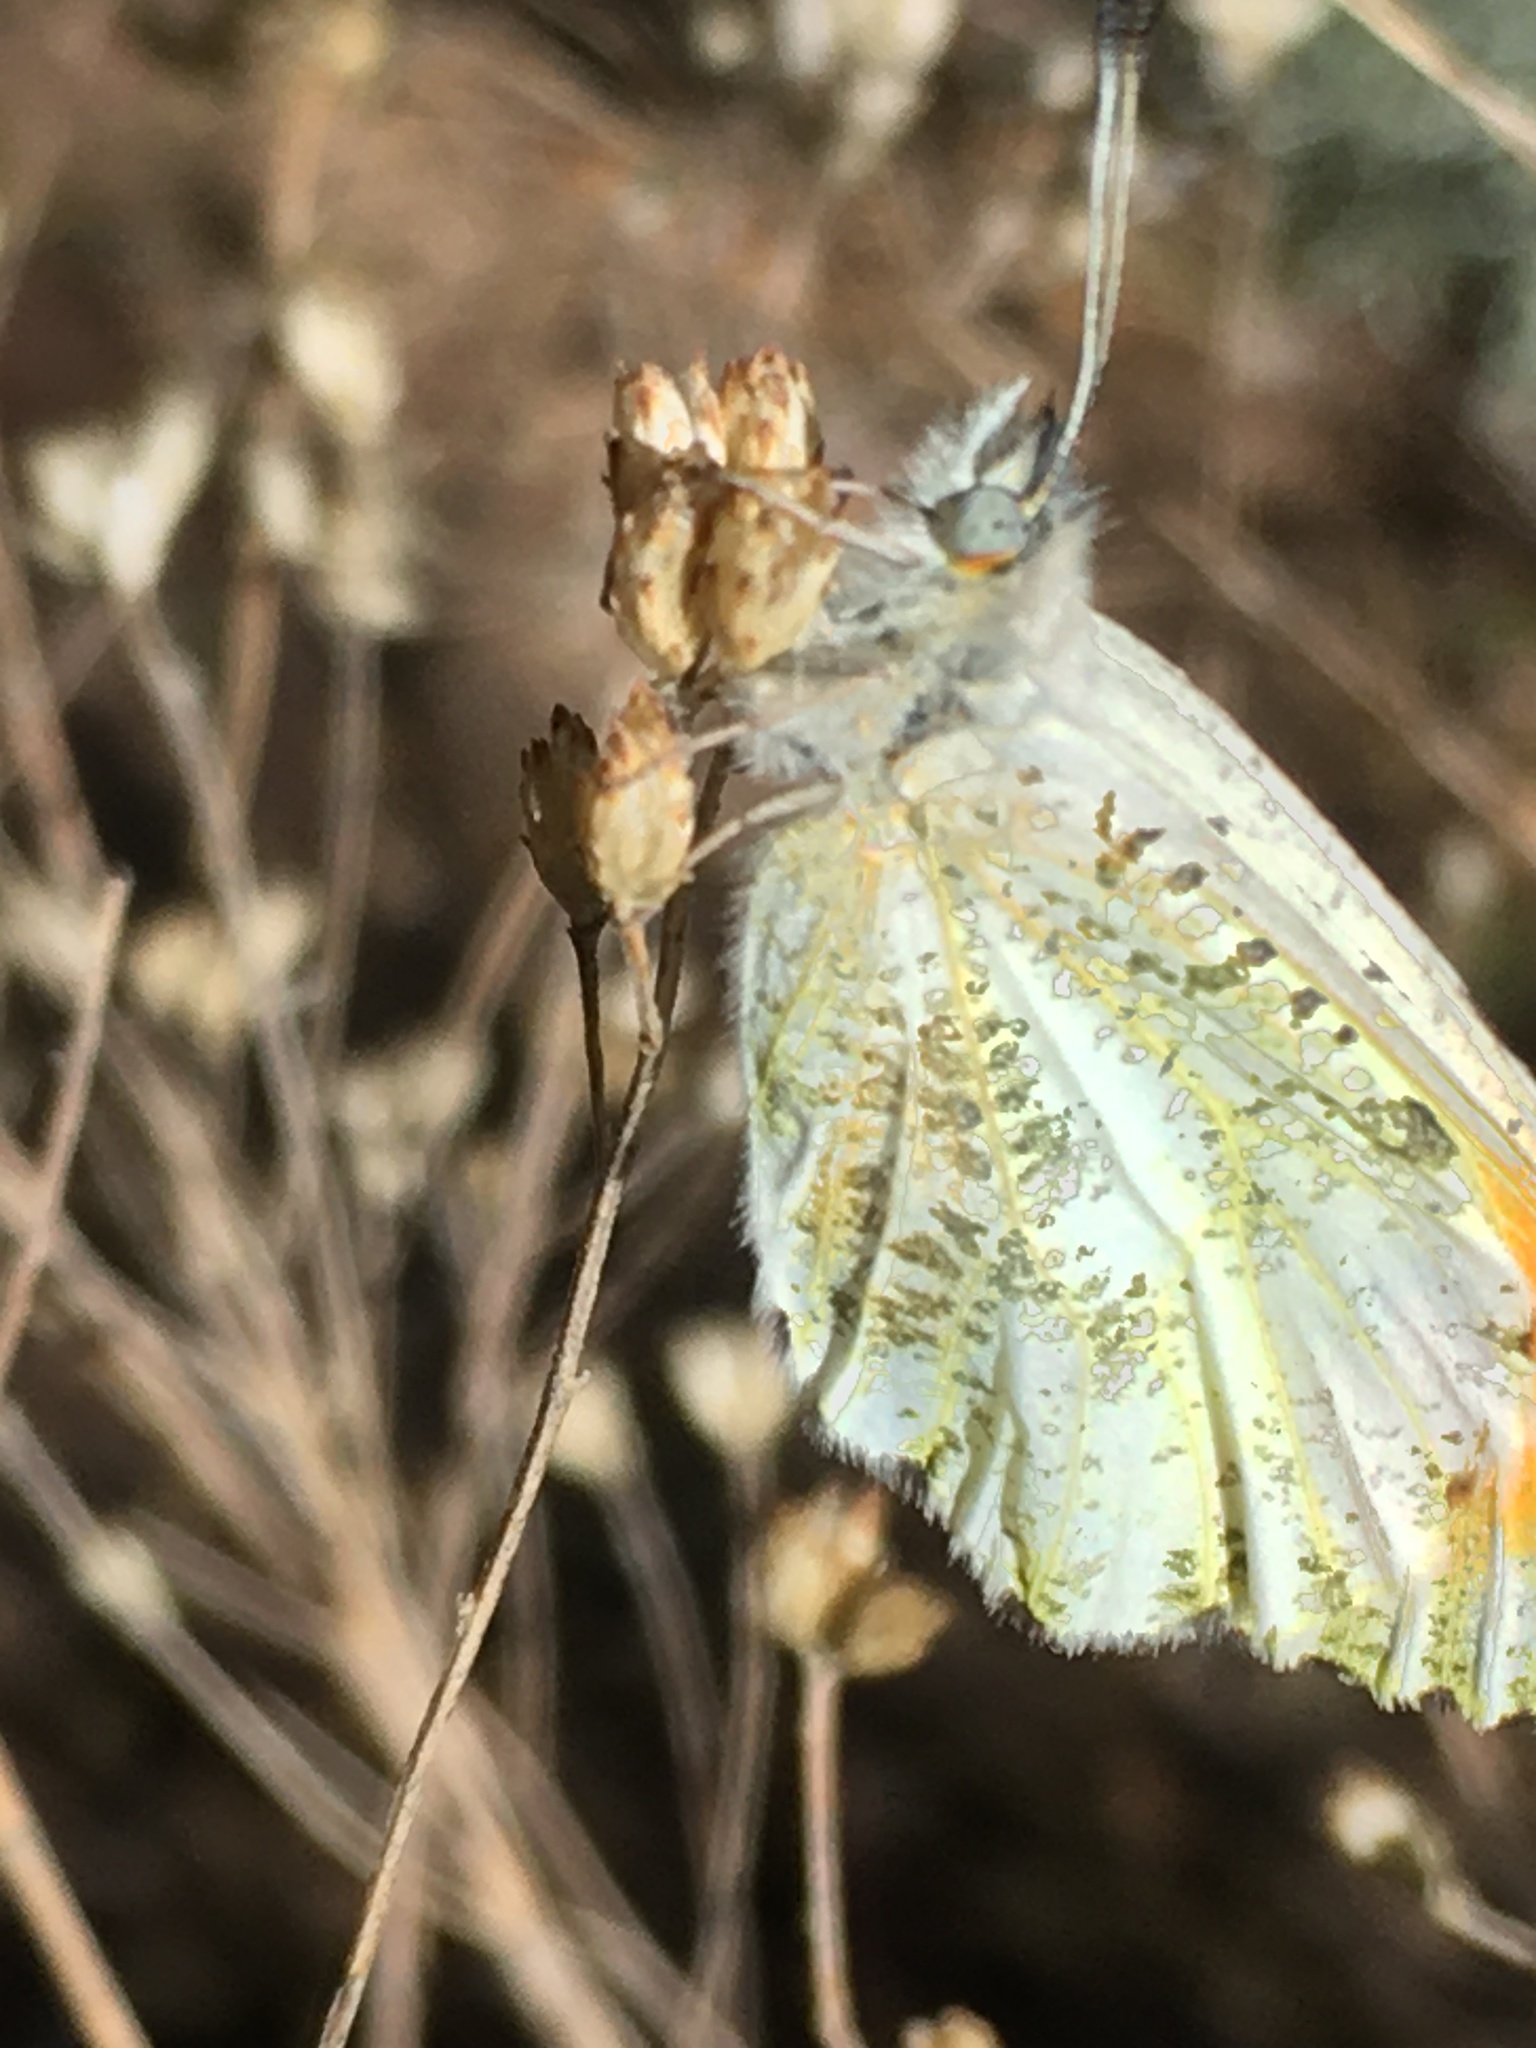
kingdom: Animalia
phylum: Arthropoda
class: Insecta
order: Lepidoptera
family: Pieridae
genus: Anthocharis
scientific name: Anthocharis sara
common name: Sara's orangetip
